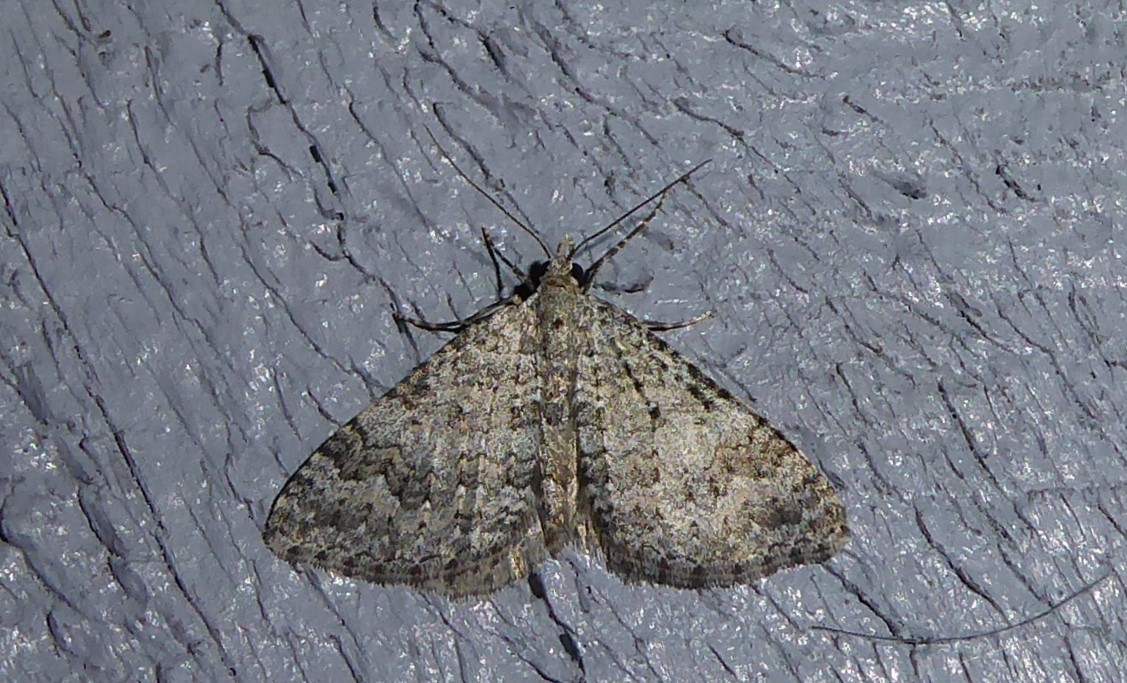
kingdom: Animalia
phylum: Arthropoda
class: Insecta
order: Lepidoptera
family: Geometridae
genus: Helastia
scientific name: Helastia corcularia
